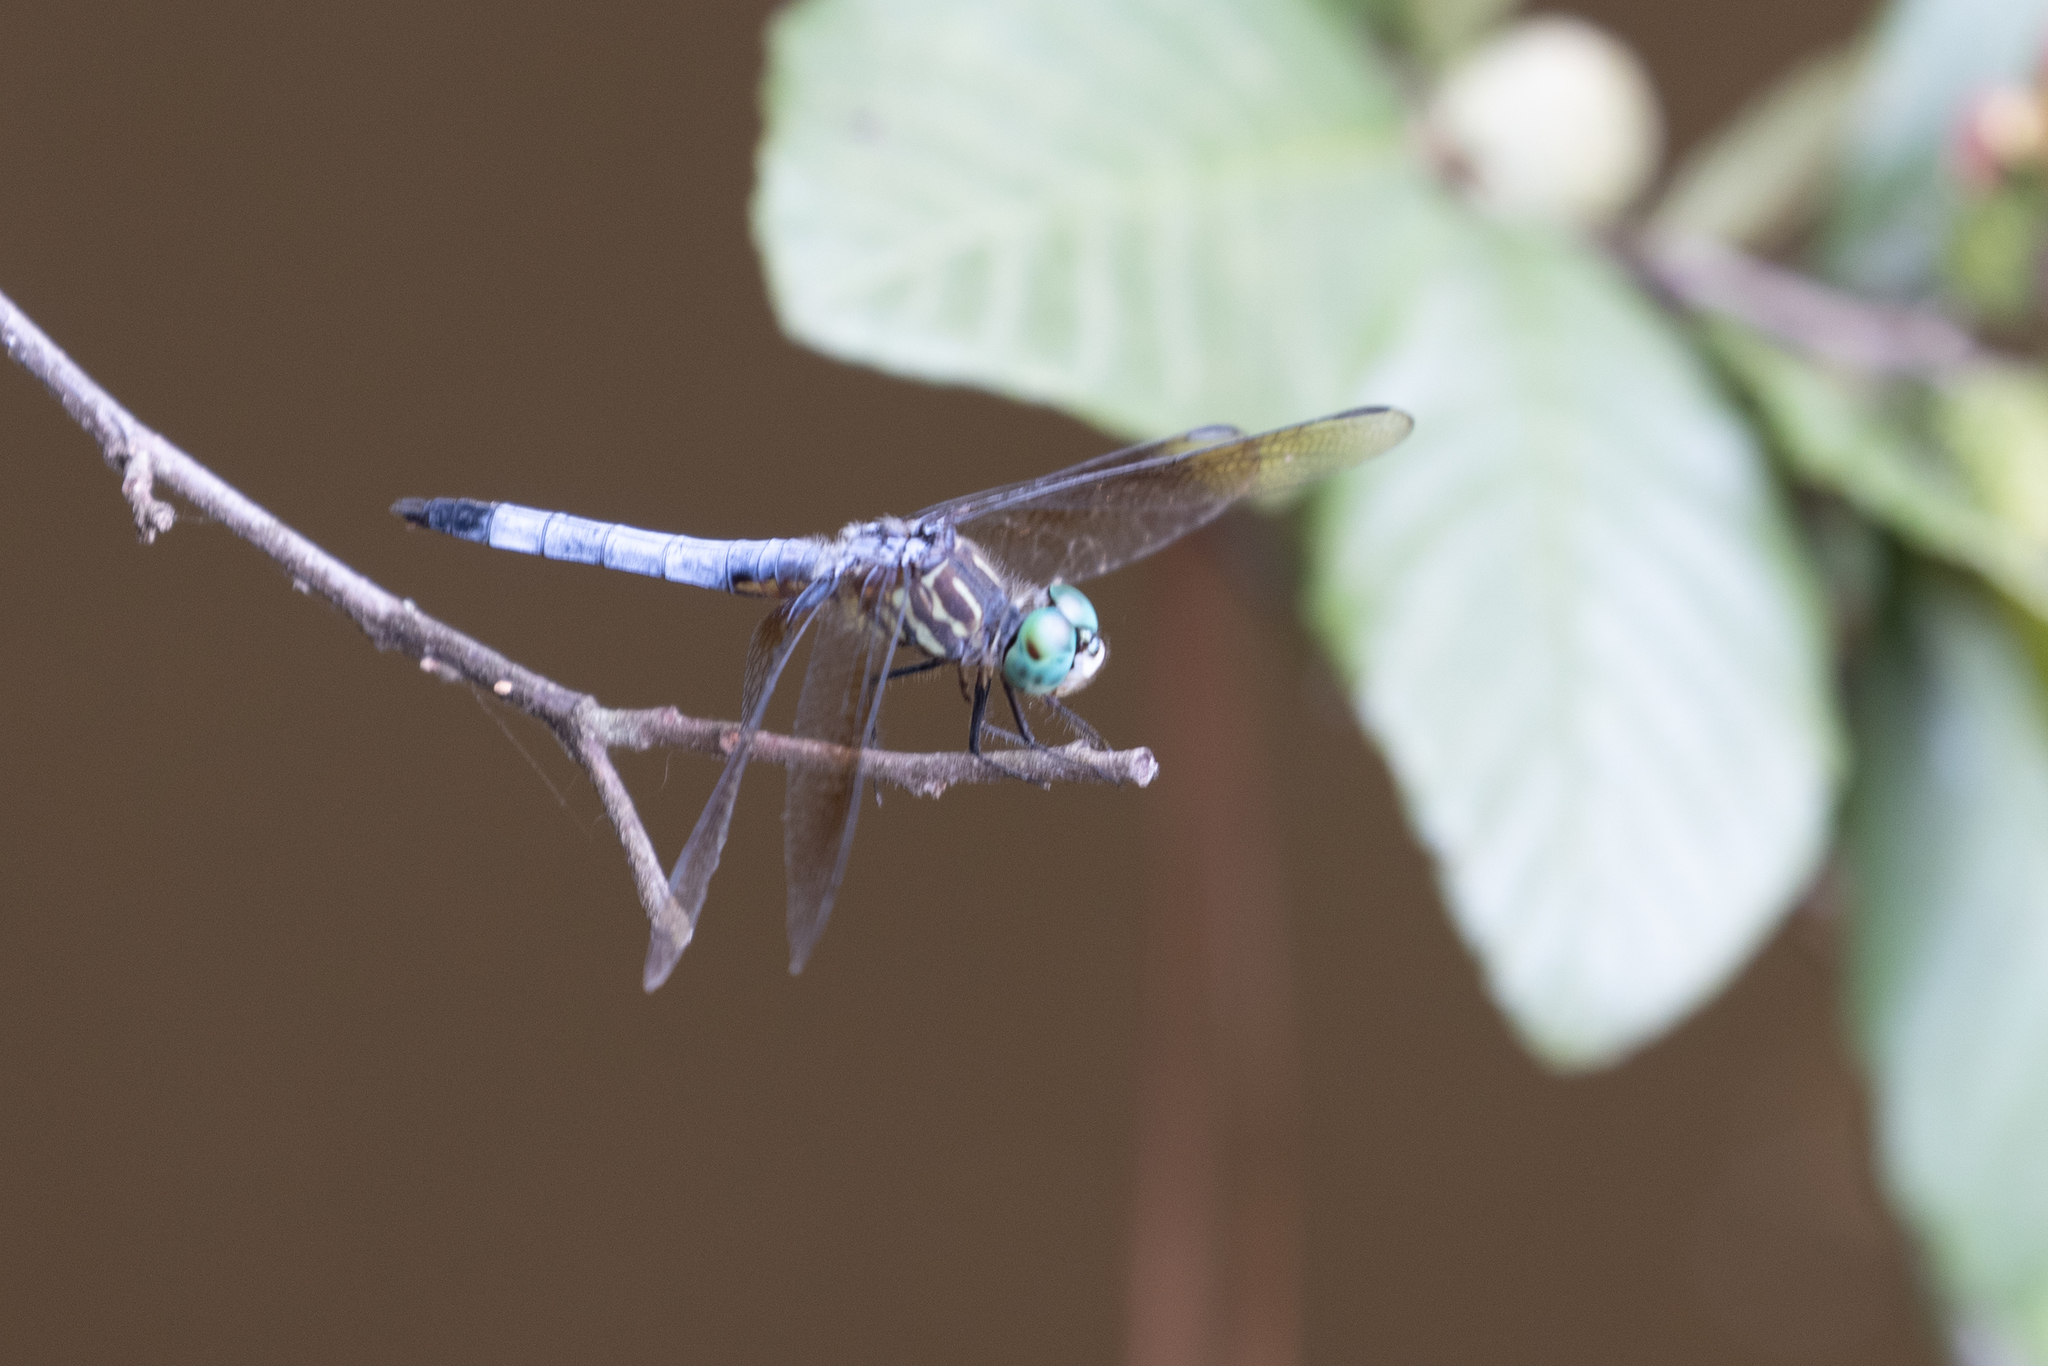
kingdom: Animalia
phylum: Arthropoda
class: Insecta
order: Odonata
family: Libellulidae
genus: Pachydiplax
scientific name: Pachydiplax longipennis
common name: Blue dasher
